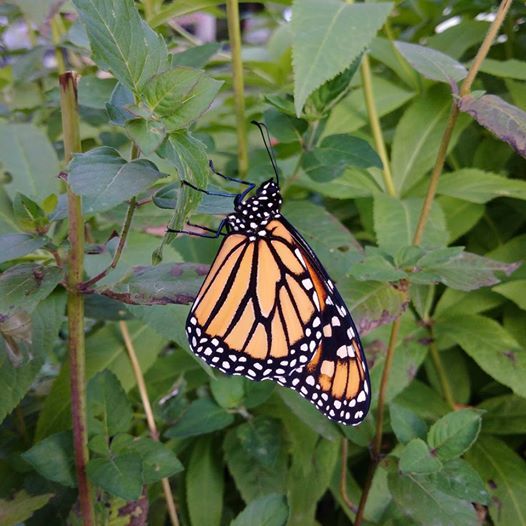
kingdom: Animalia
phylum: Arthropoda
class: Insecta
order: Lepidoptera
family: Nymphalidae
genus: Danaus
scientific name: Danaus plexippus
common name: Monarch
